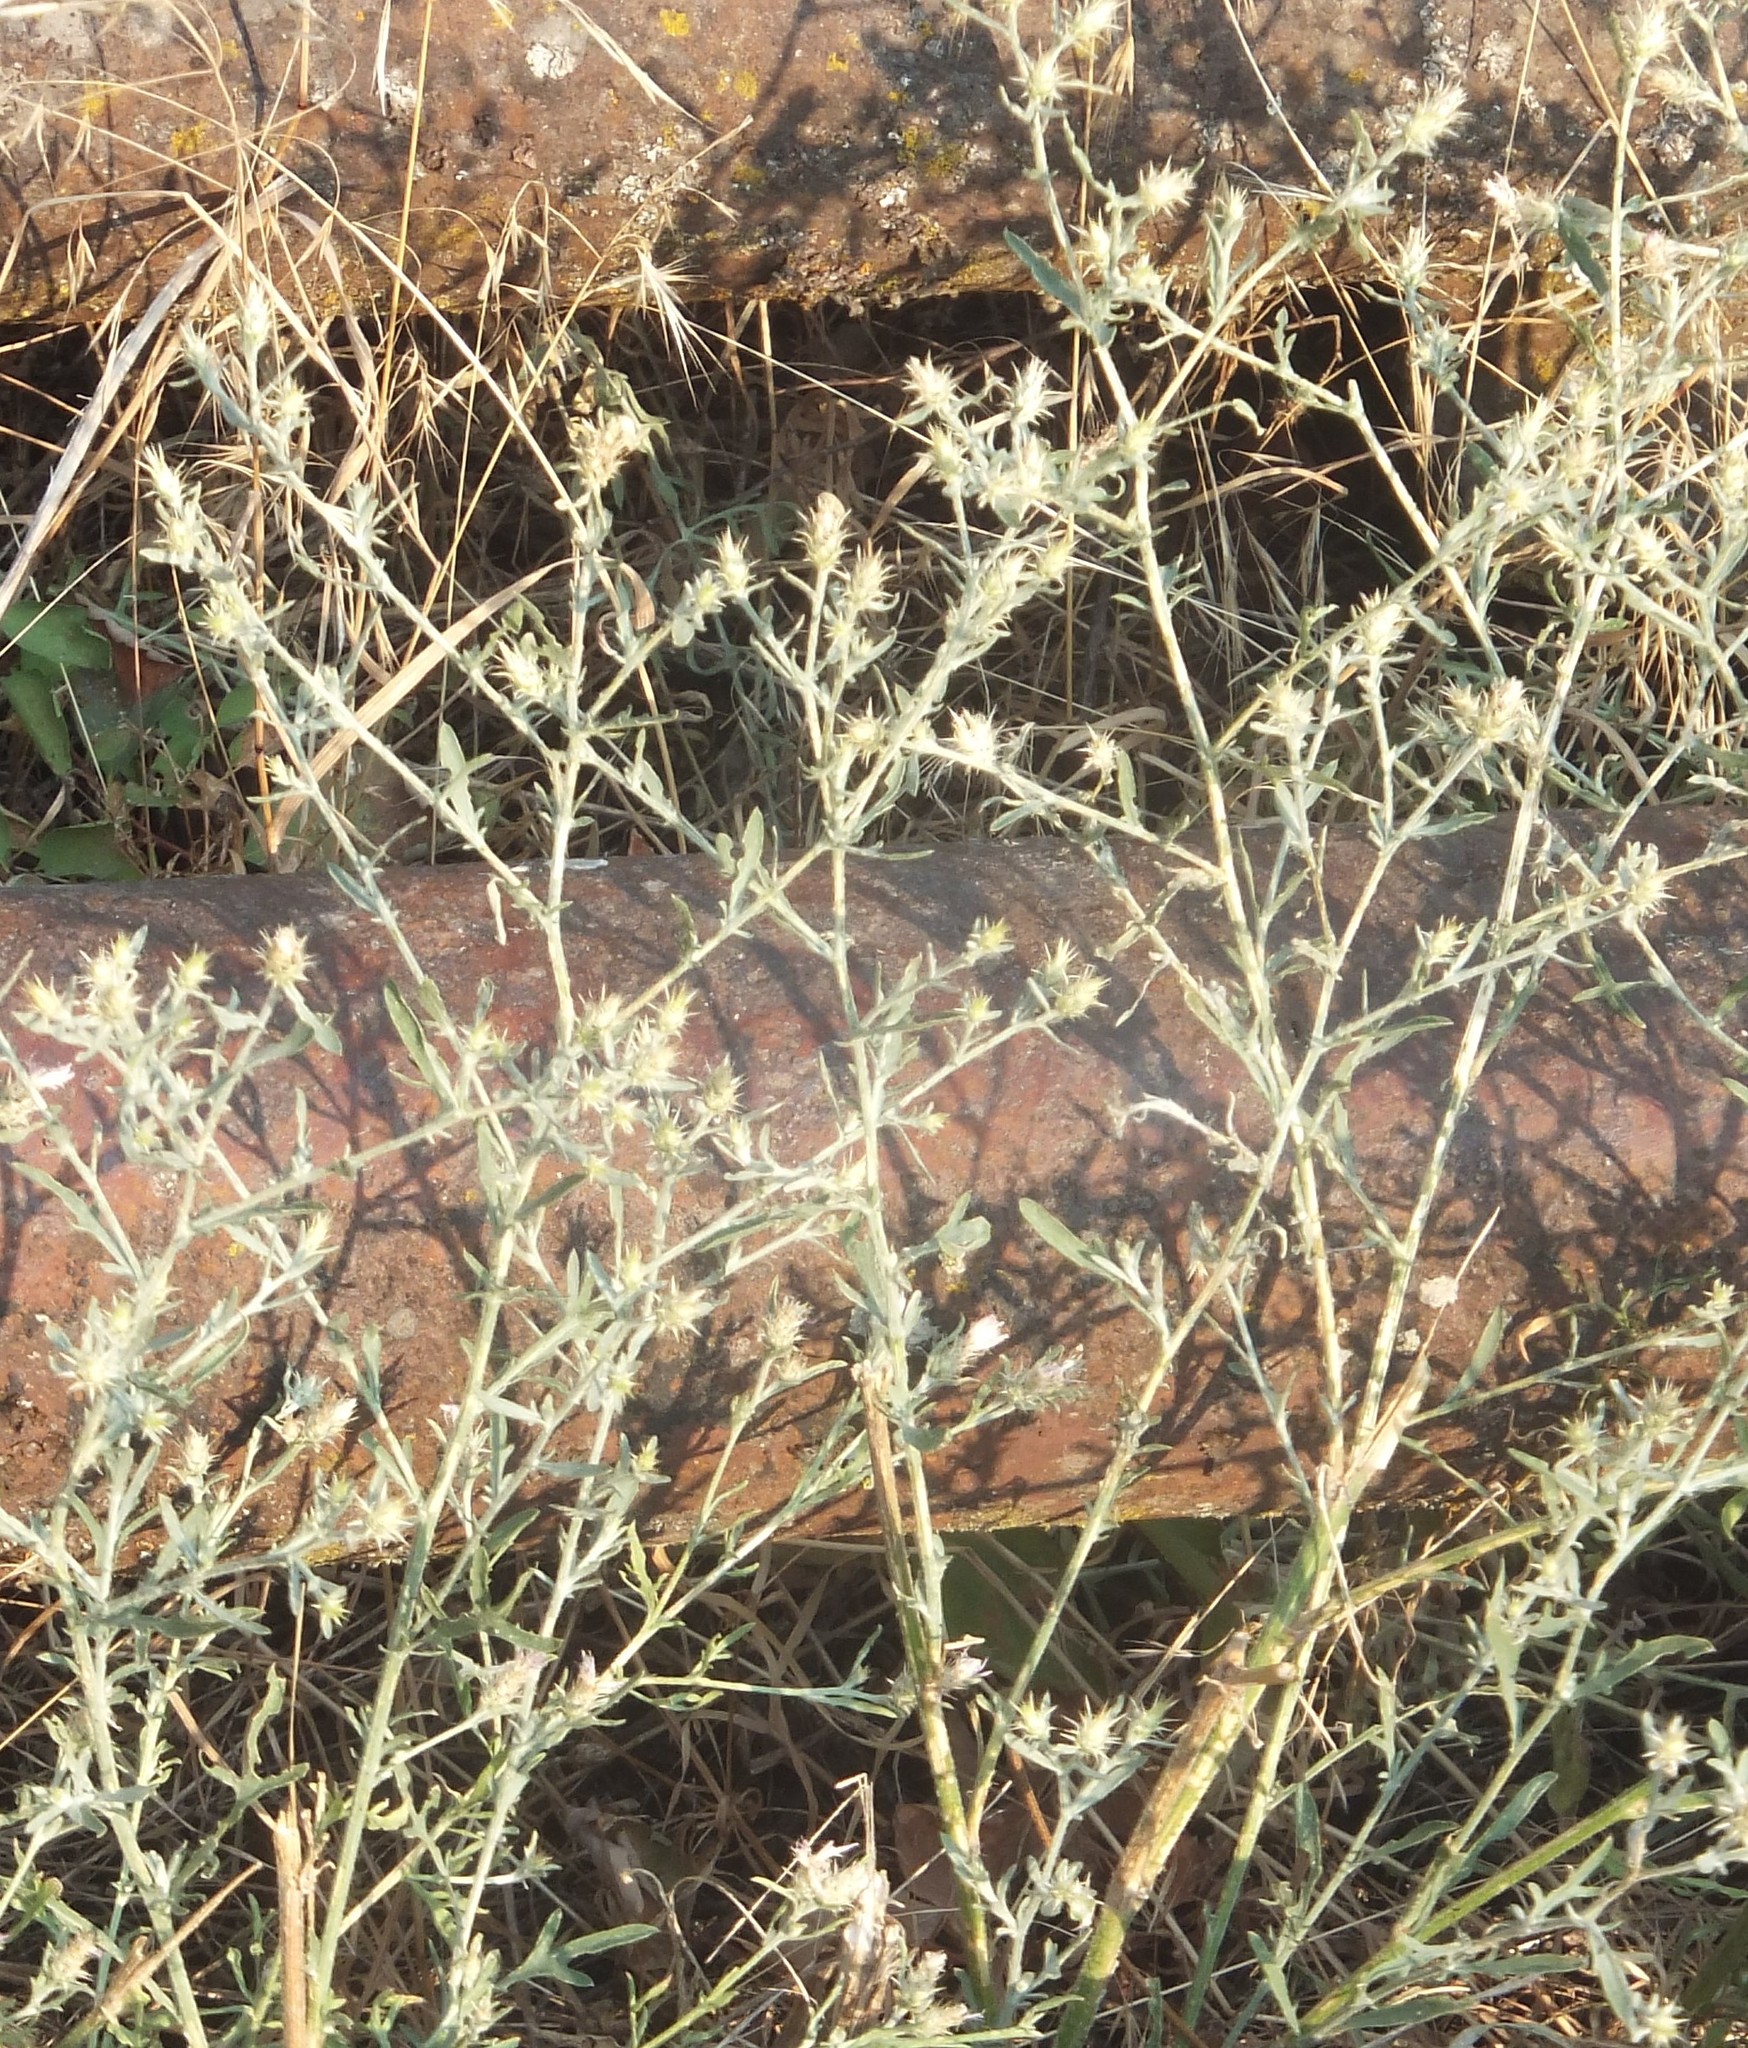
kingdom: Plantae
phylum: Tracheophyta
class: Magnoliopsida
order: Asterales
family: Asteraceae
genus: Centaurea
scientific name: Centaurea diffusa
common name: Diffuse knapweed
